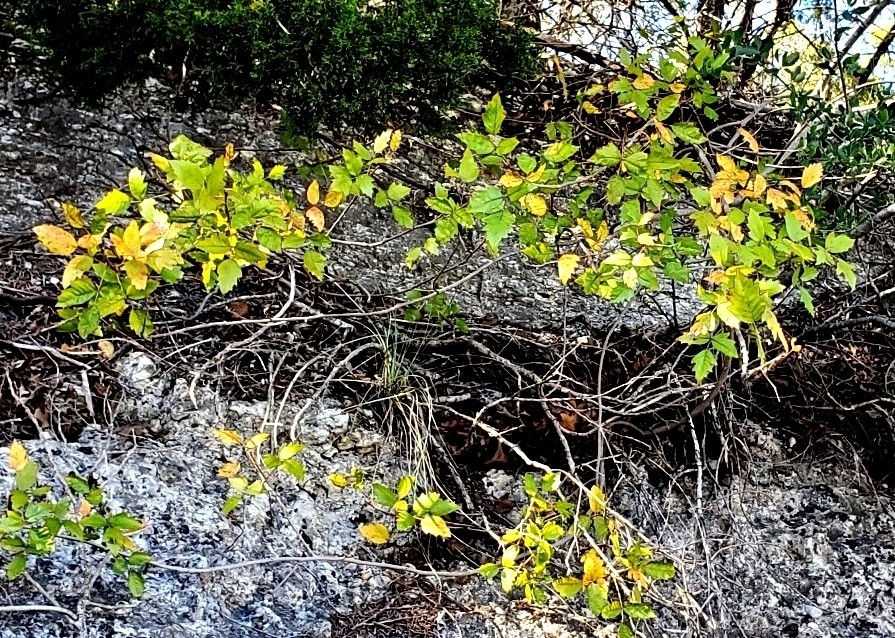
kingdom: Plantae
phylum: Tracheophyta
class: Magnoliopsida
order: Sapindales
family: Anacardiaceae
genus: Toxicodendron
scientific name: Toxicodendron radicans
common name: Poison ivy
